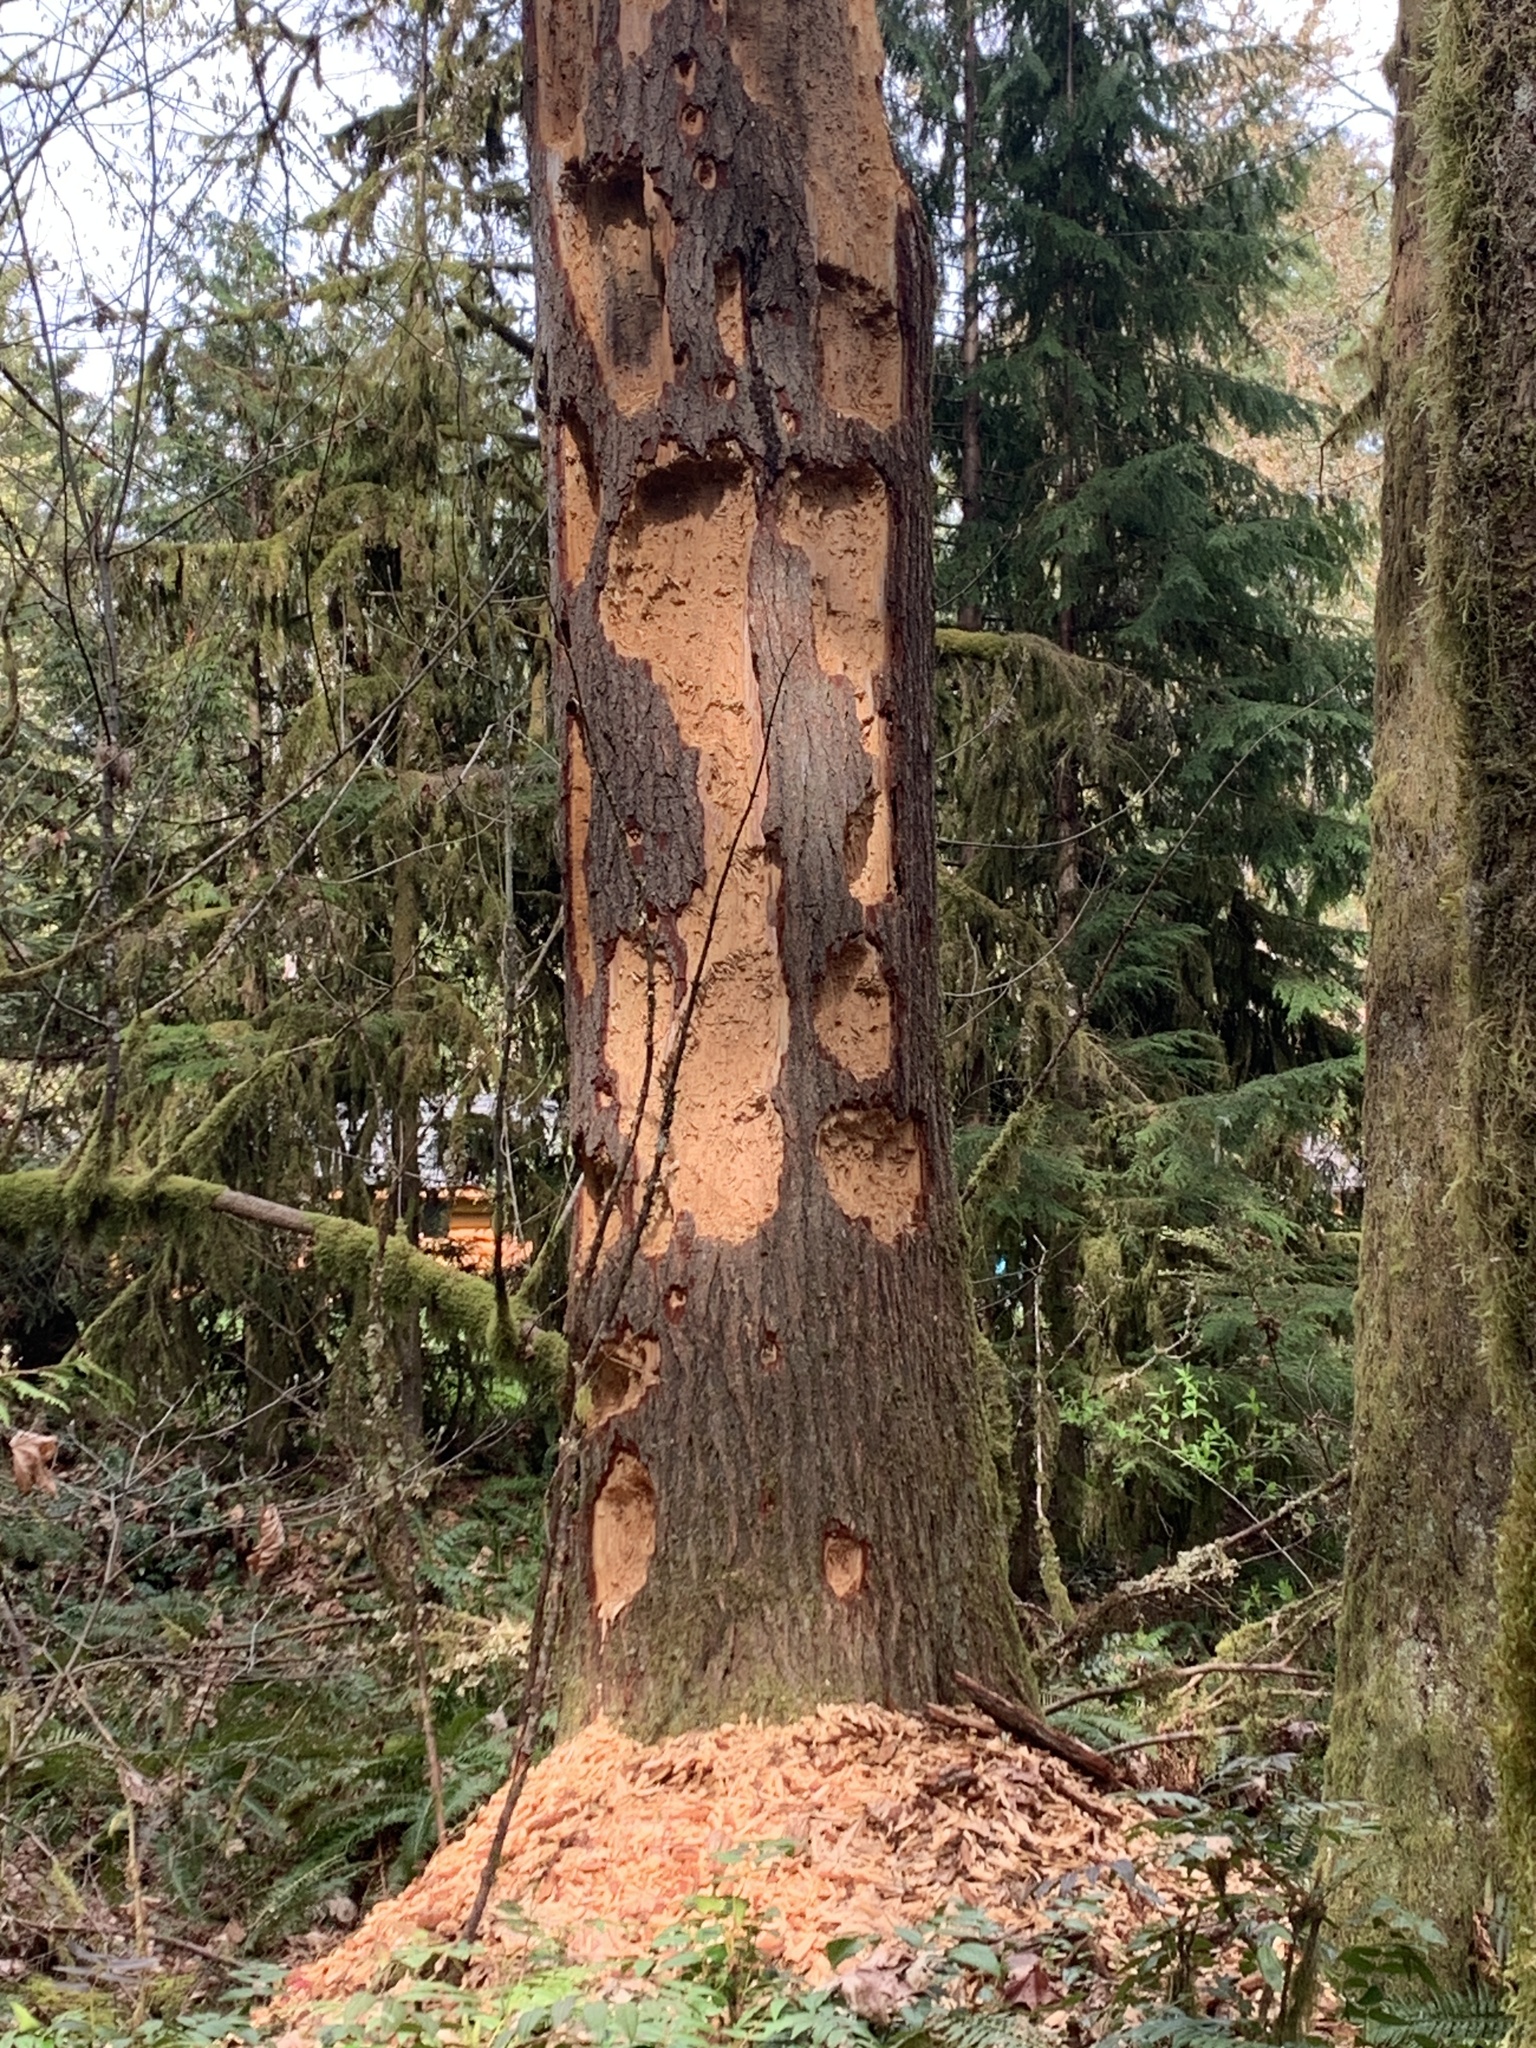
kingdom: Animalia
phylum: Chordata
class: Aves
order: Piciformes
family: Picidae
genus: Dryocopus
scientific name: Dryocopus pileatus
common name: Pileated woodpecker
